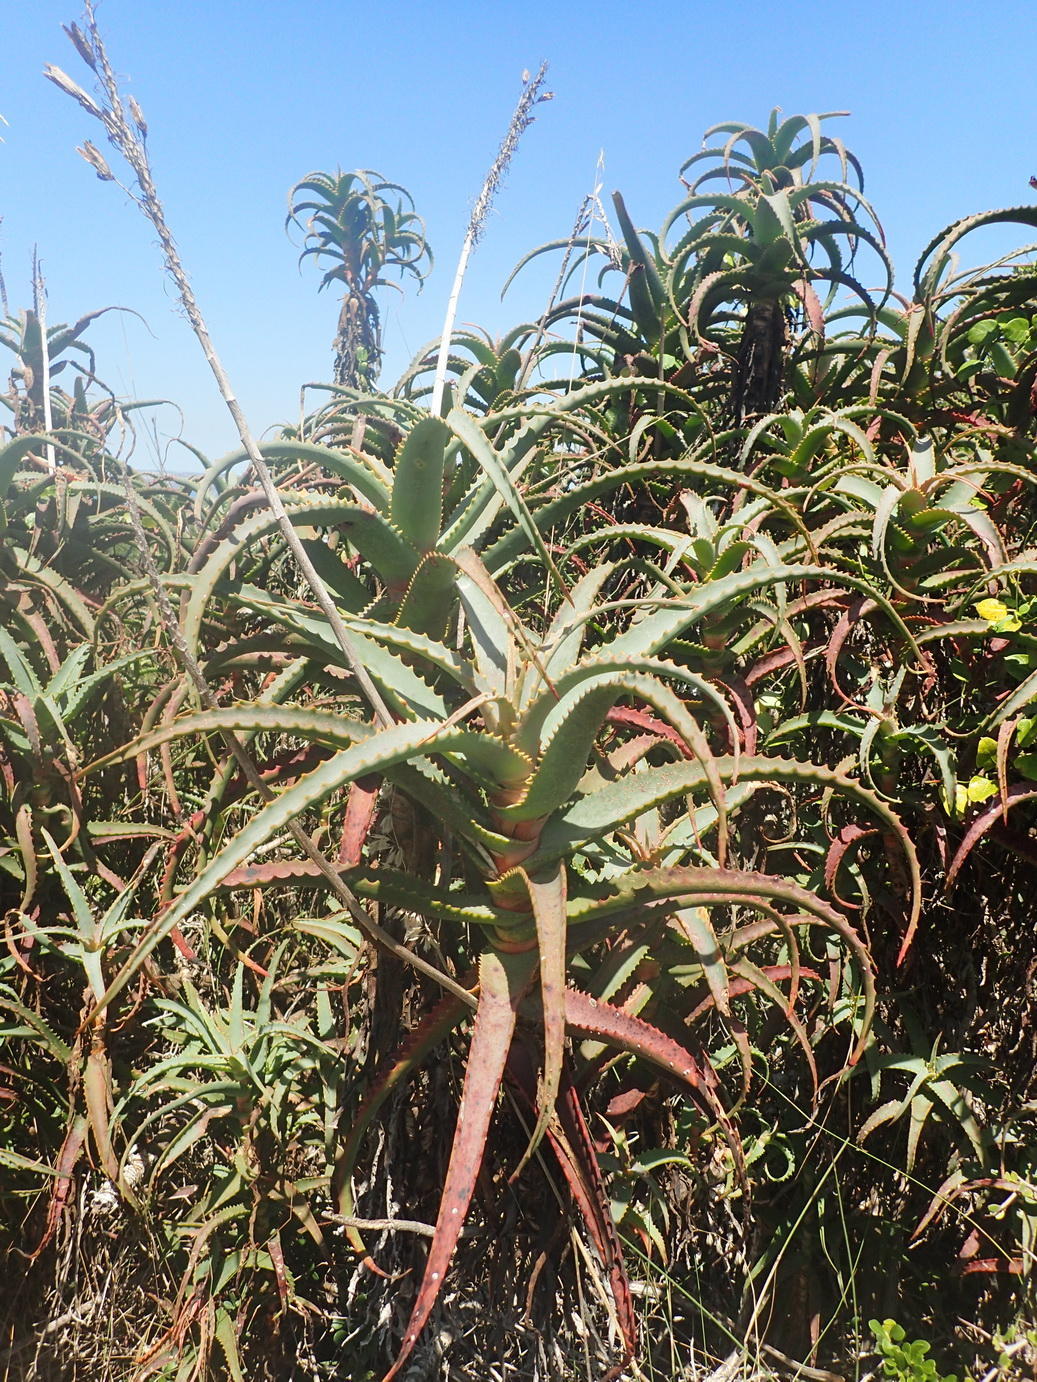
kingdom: Plantae
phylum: Tracheophyta
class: Liliopsida
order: Asparagales
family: Asphodelaceae
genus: Aloe
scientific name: Aloe arborescens
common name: Candelabra aloe
